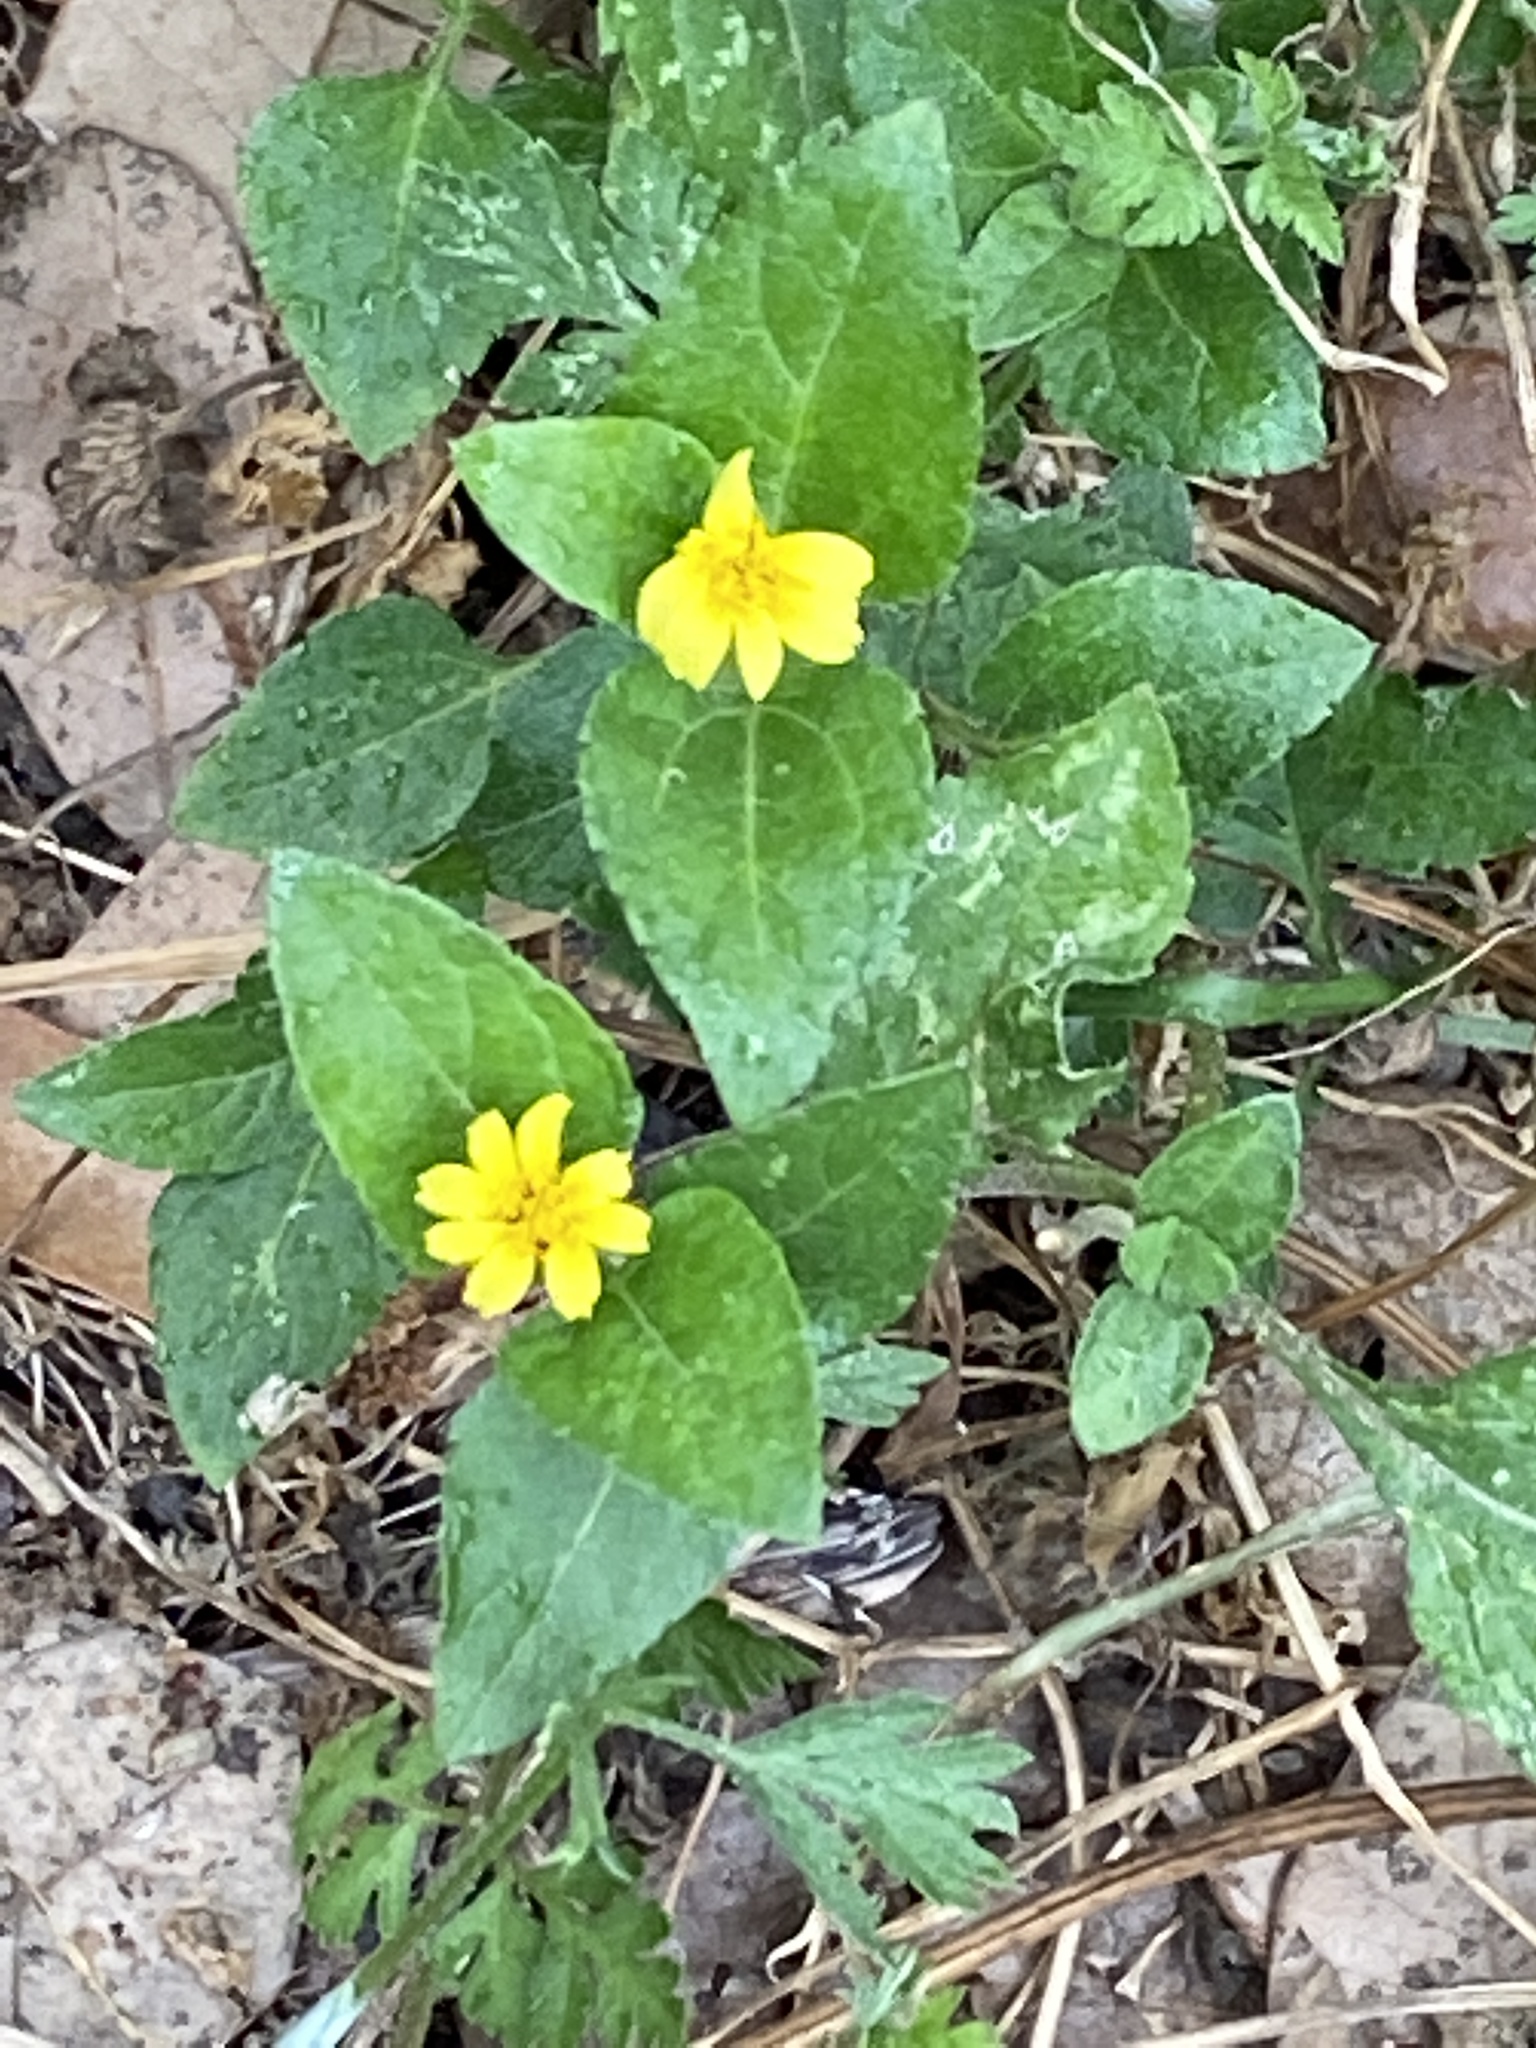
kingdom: Plantae
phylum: Tracheophyta
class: Magnoliopsida
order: Asterales
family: Asteraceae
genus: Calyptocarpus
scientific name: Calyptocarpus vialis
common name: Straggler daisy
